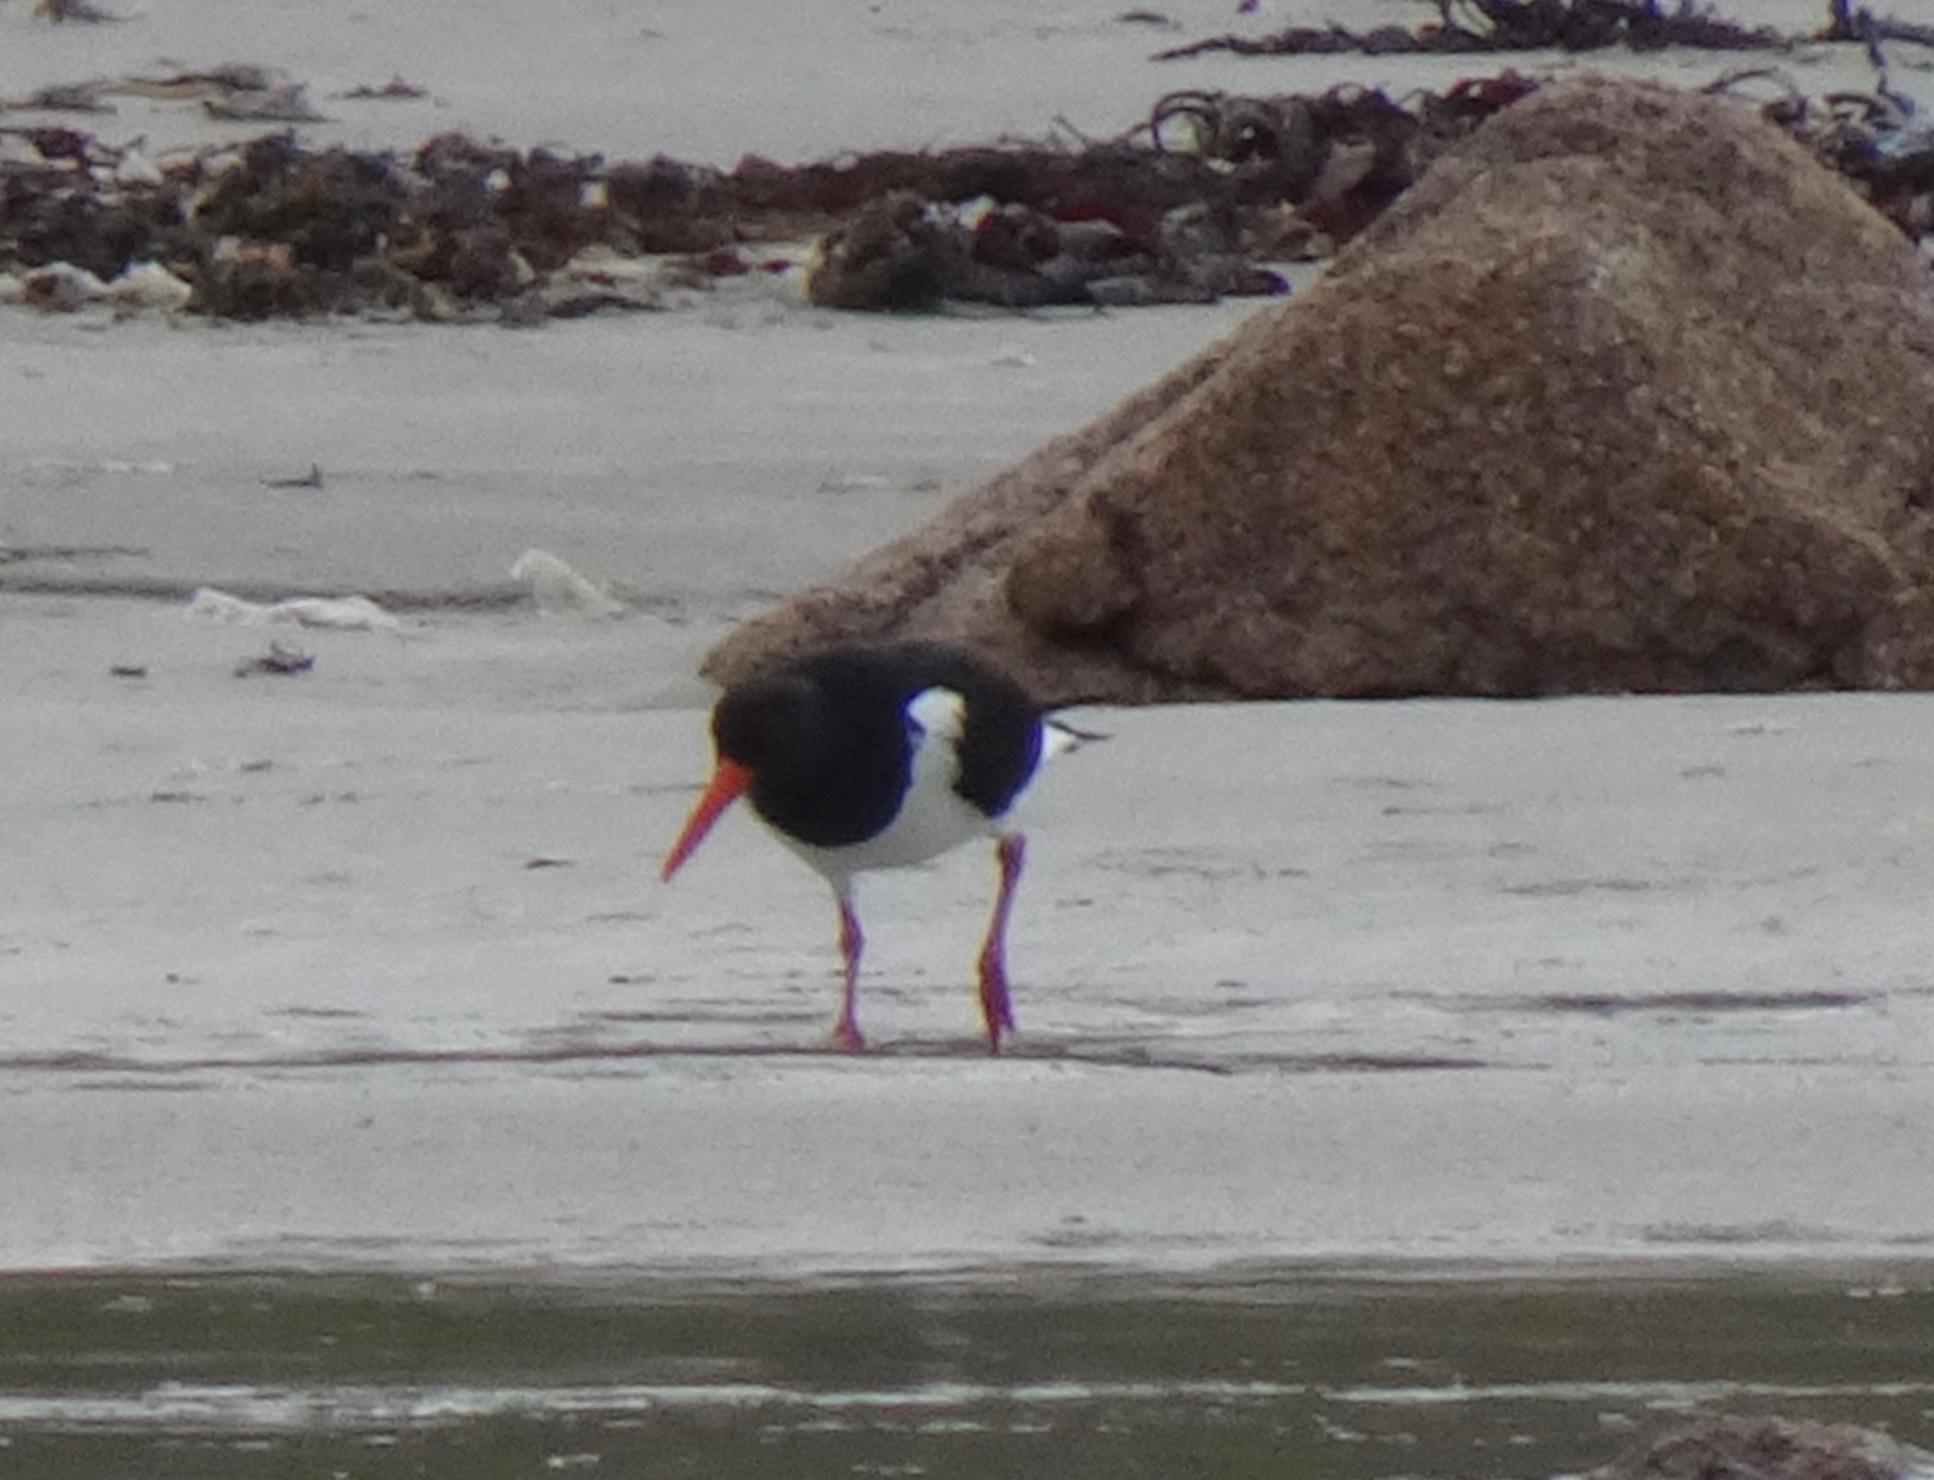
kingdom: Animalia
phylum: Chordata
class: Aves
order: Charadriiformes
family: Haematopodidae
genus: Haematopus
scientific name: Haematopus ostralegus
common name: Eurasian oystercatcher
